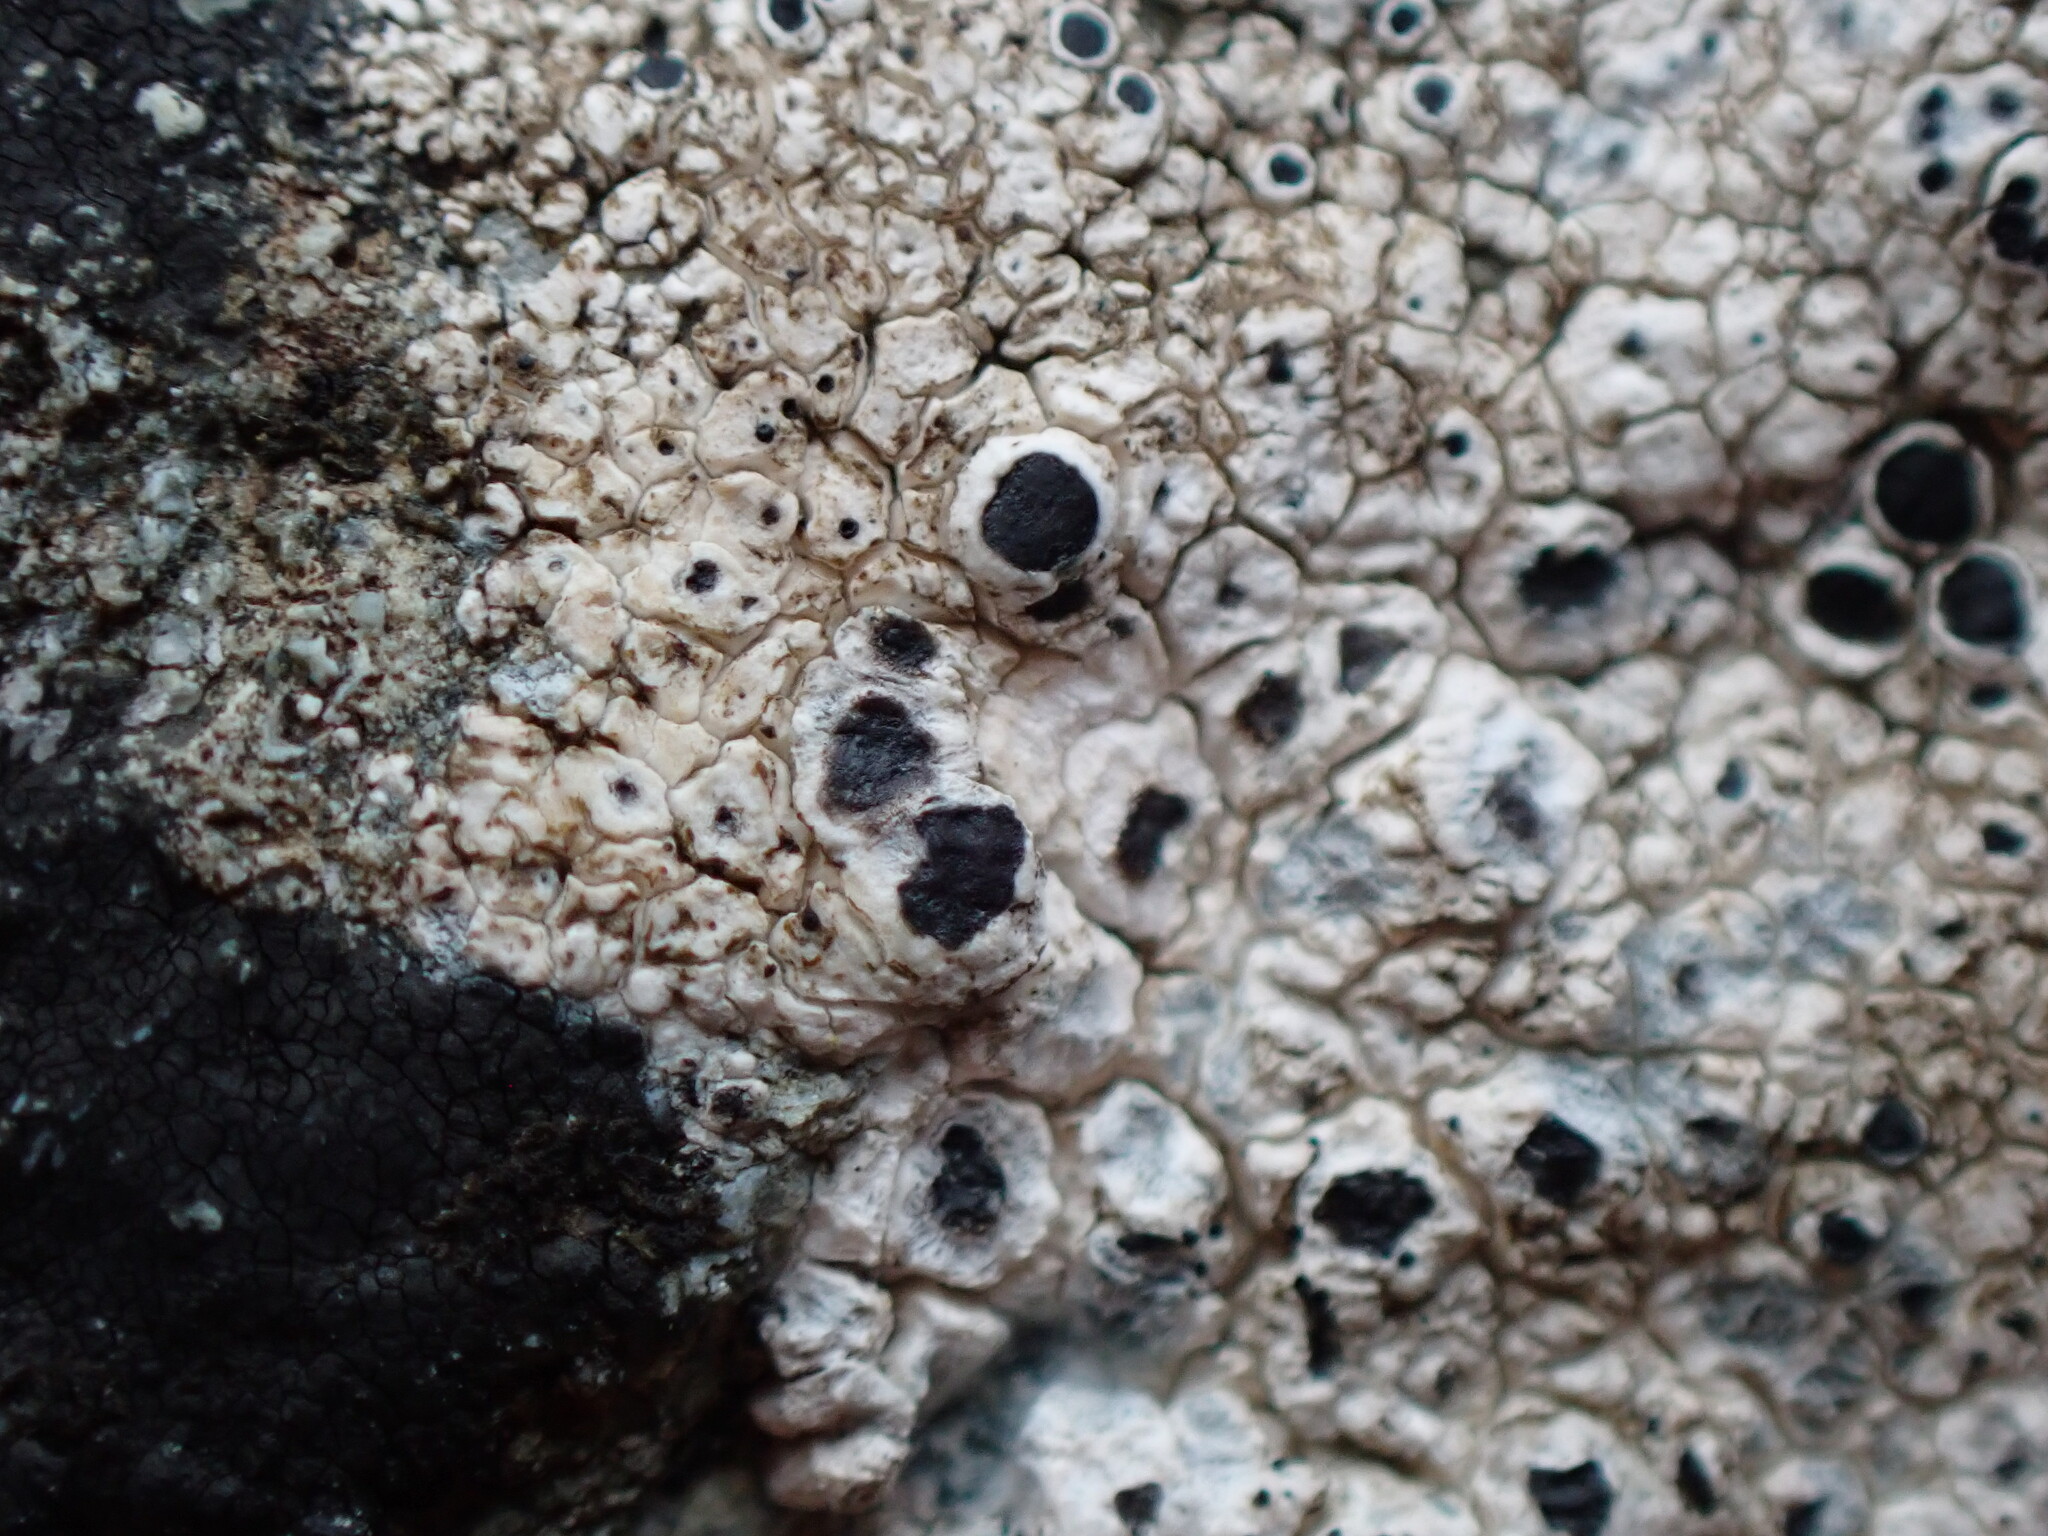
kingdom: Fungi
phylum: Ascomycota
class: Lecanoromycetes
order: Lecanorales
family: Tephromelataceae
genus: Tephromela
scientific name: Tephromela atra
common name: Black shields
